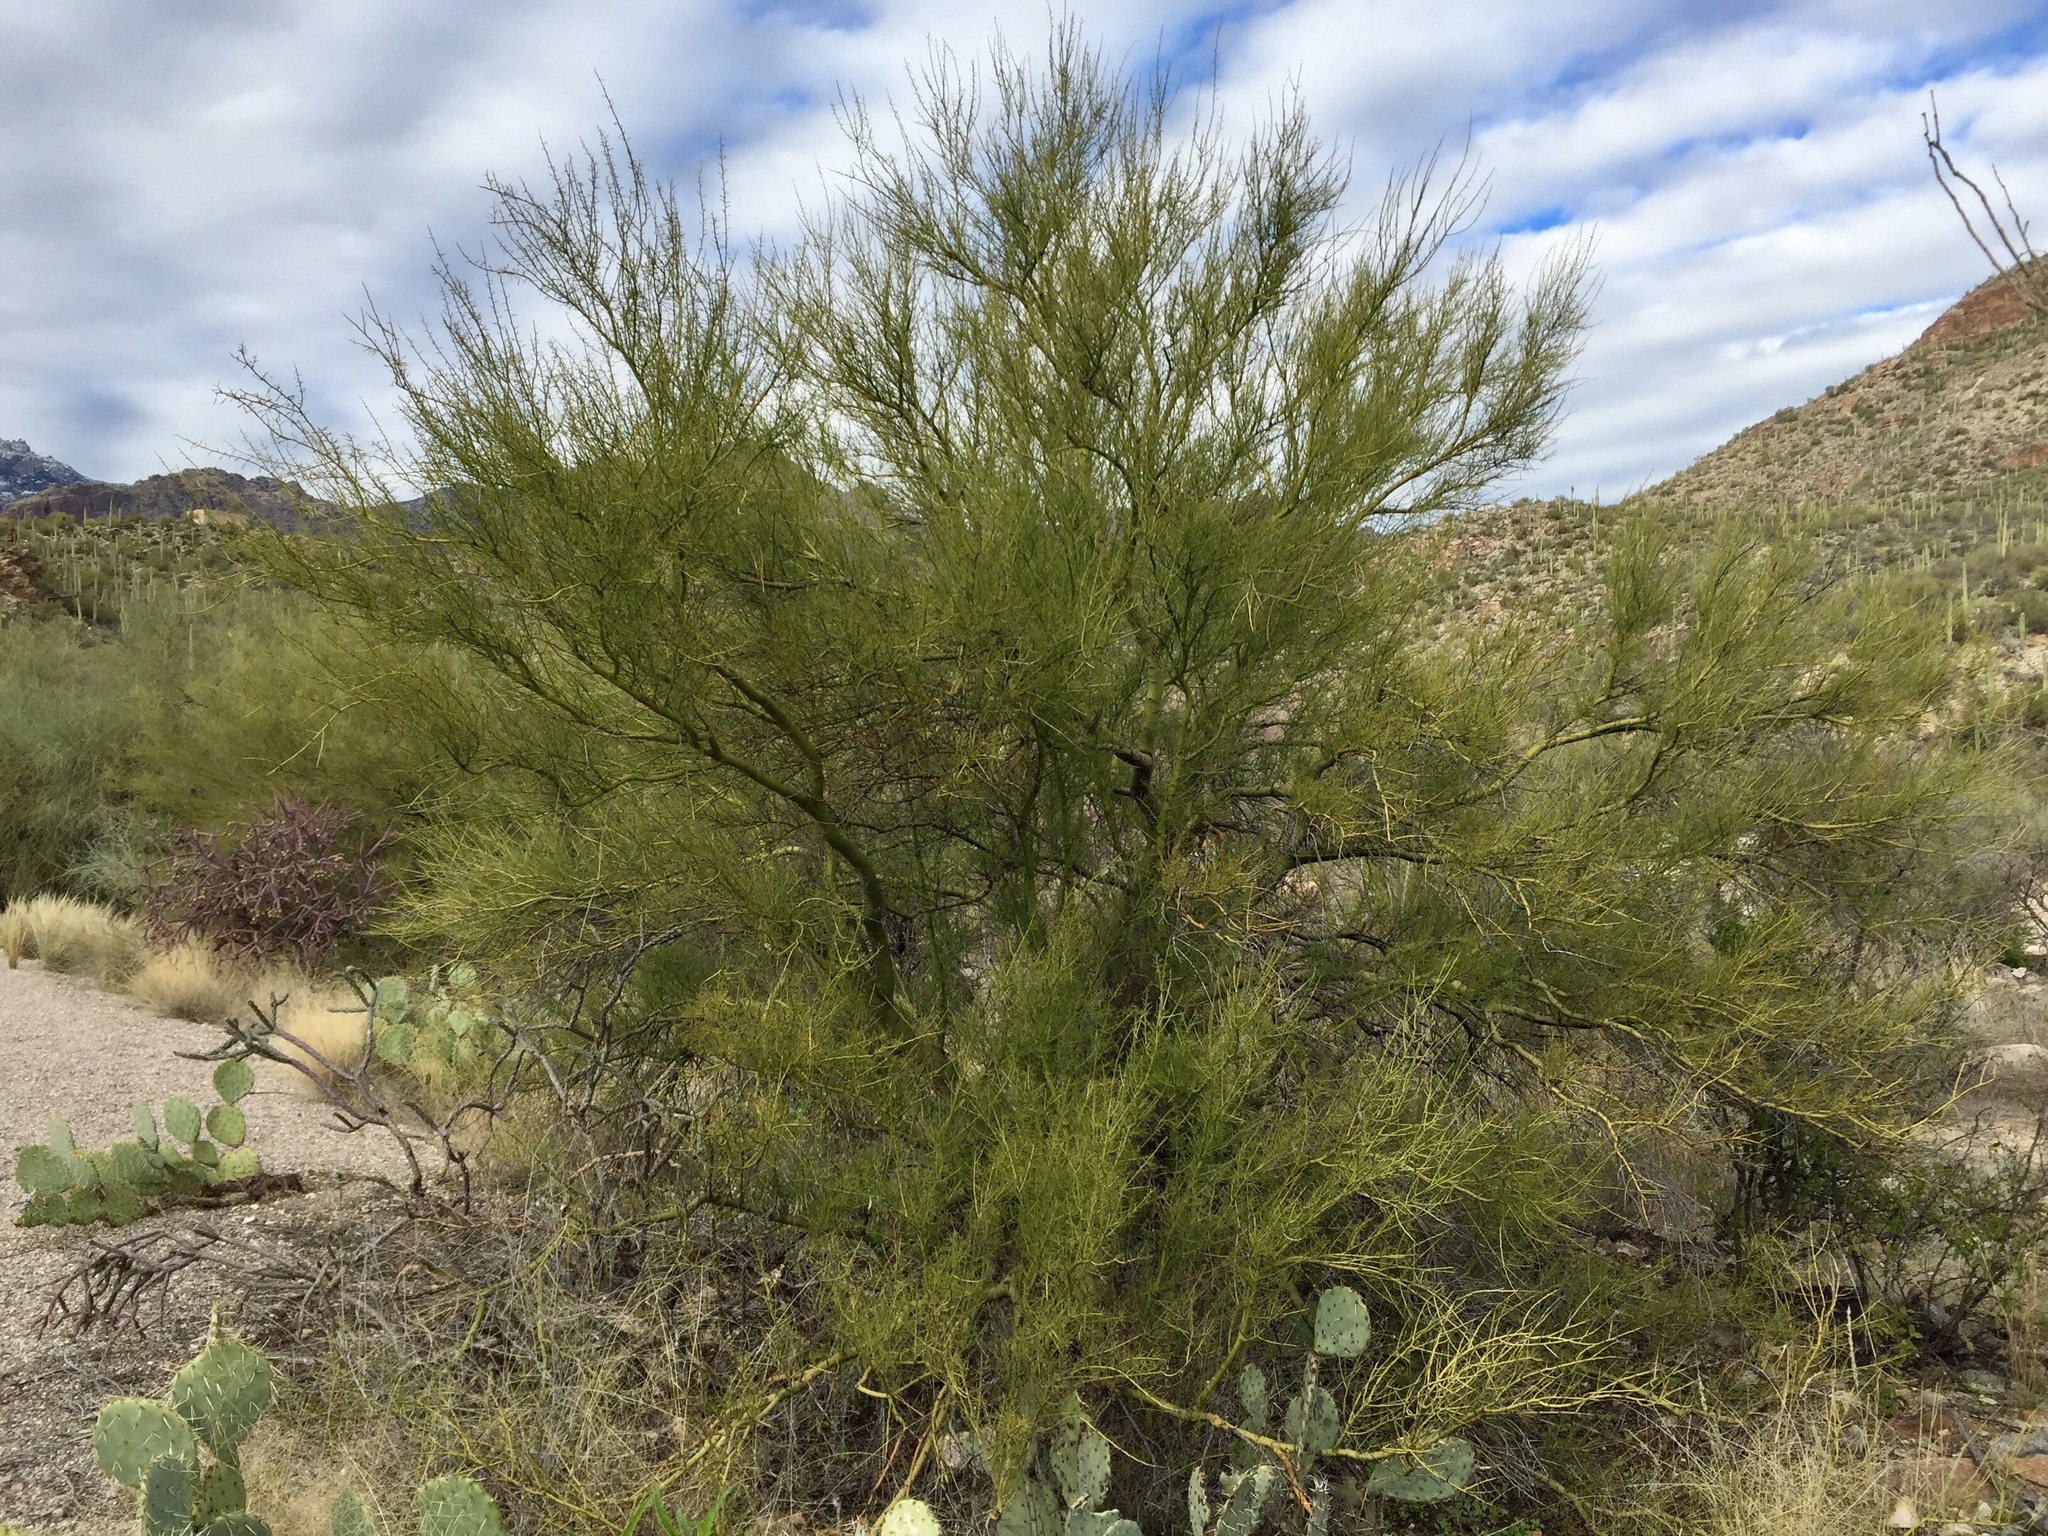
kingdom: Plantae
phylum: Tracheophyta
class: Magnoliopsida
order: Fabales
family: Fabaceae
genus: Parkinsonia
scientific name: Parkinsonia microphylla
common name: Yellow paloverde
